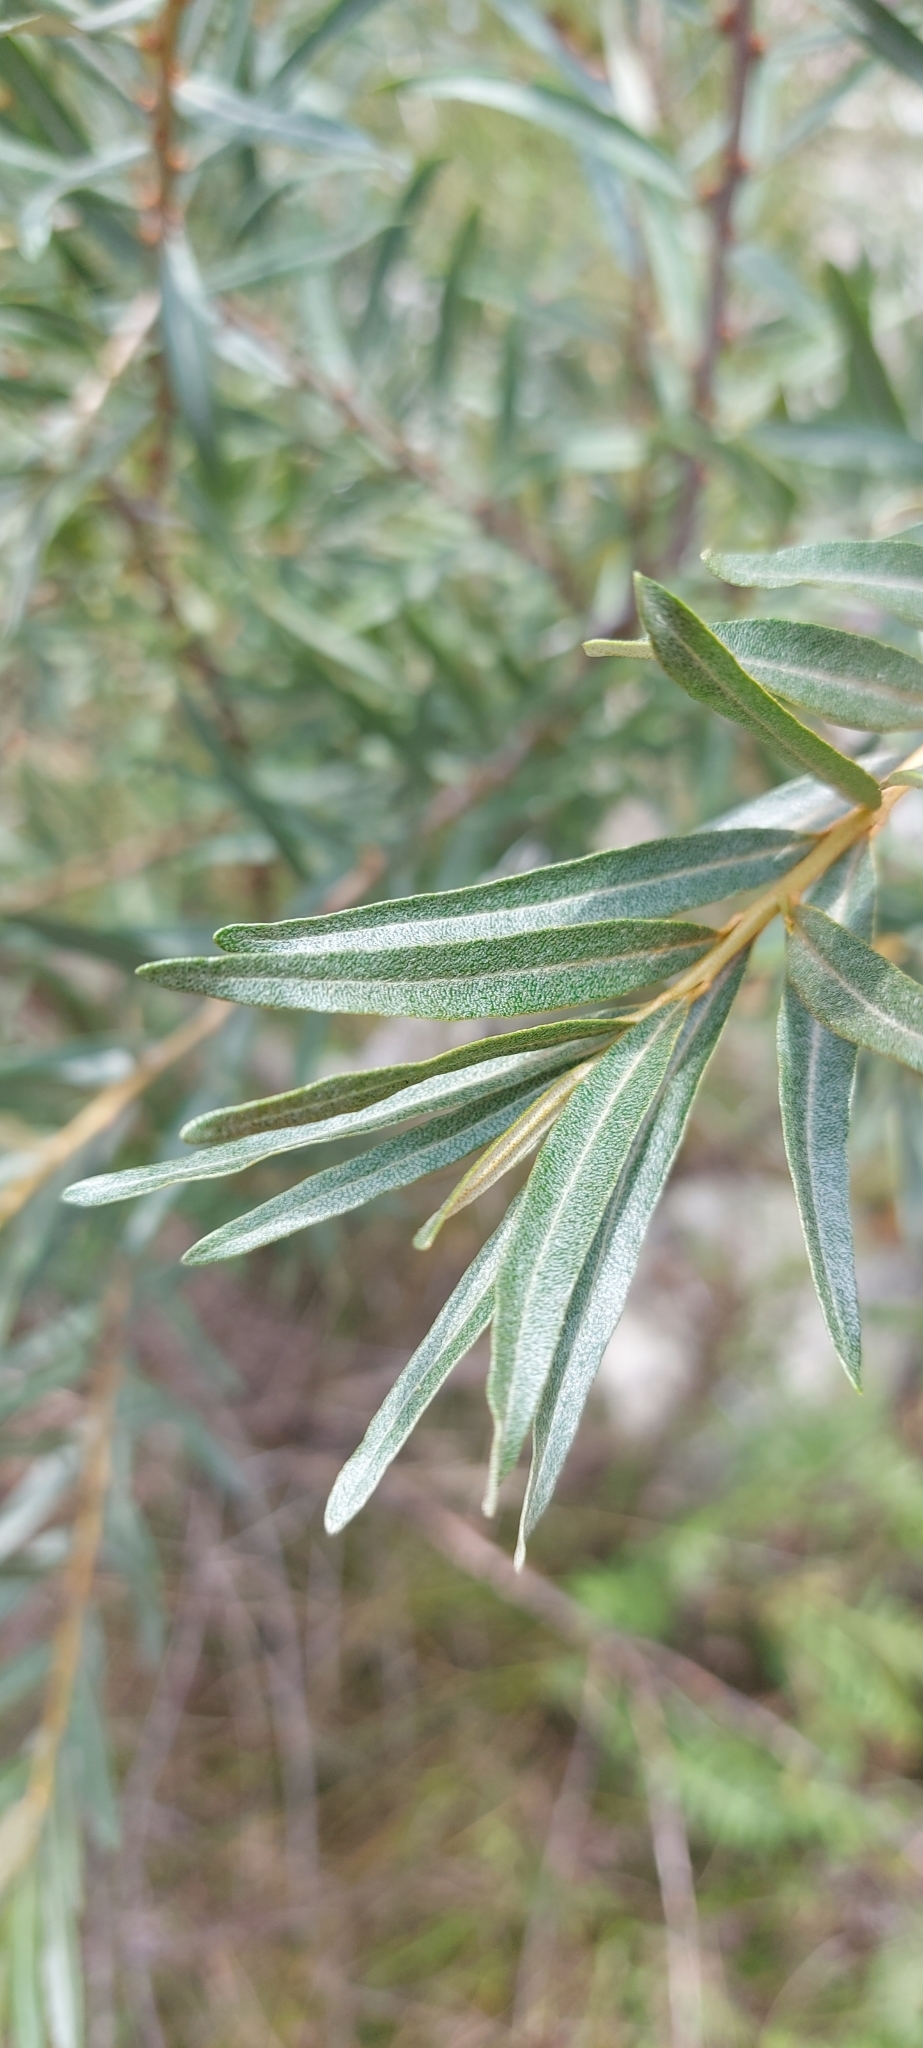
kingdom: Plantae
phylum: Tracheophyta
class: Magnoliopsida
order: Rosales
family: Elaeagnaceae
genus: Hippophae
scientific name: Hippophae rhamnoides
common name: Sea-buckthorn
